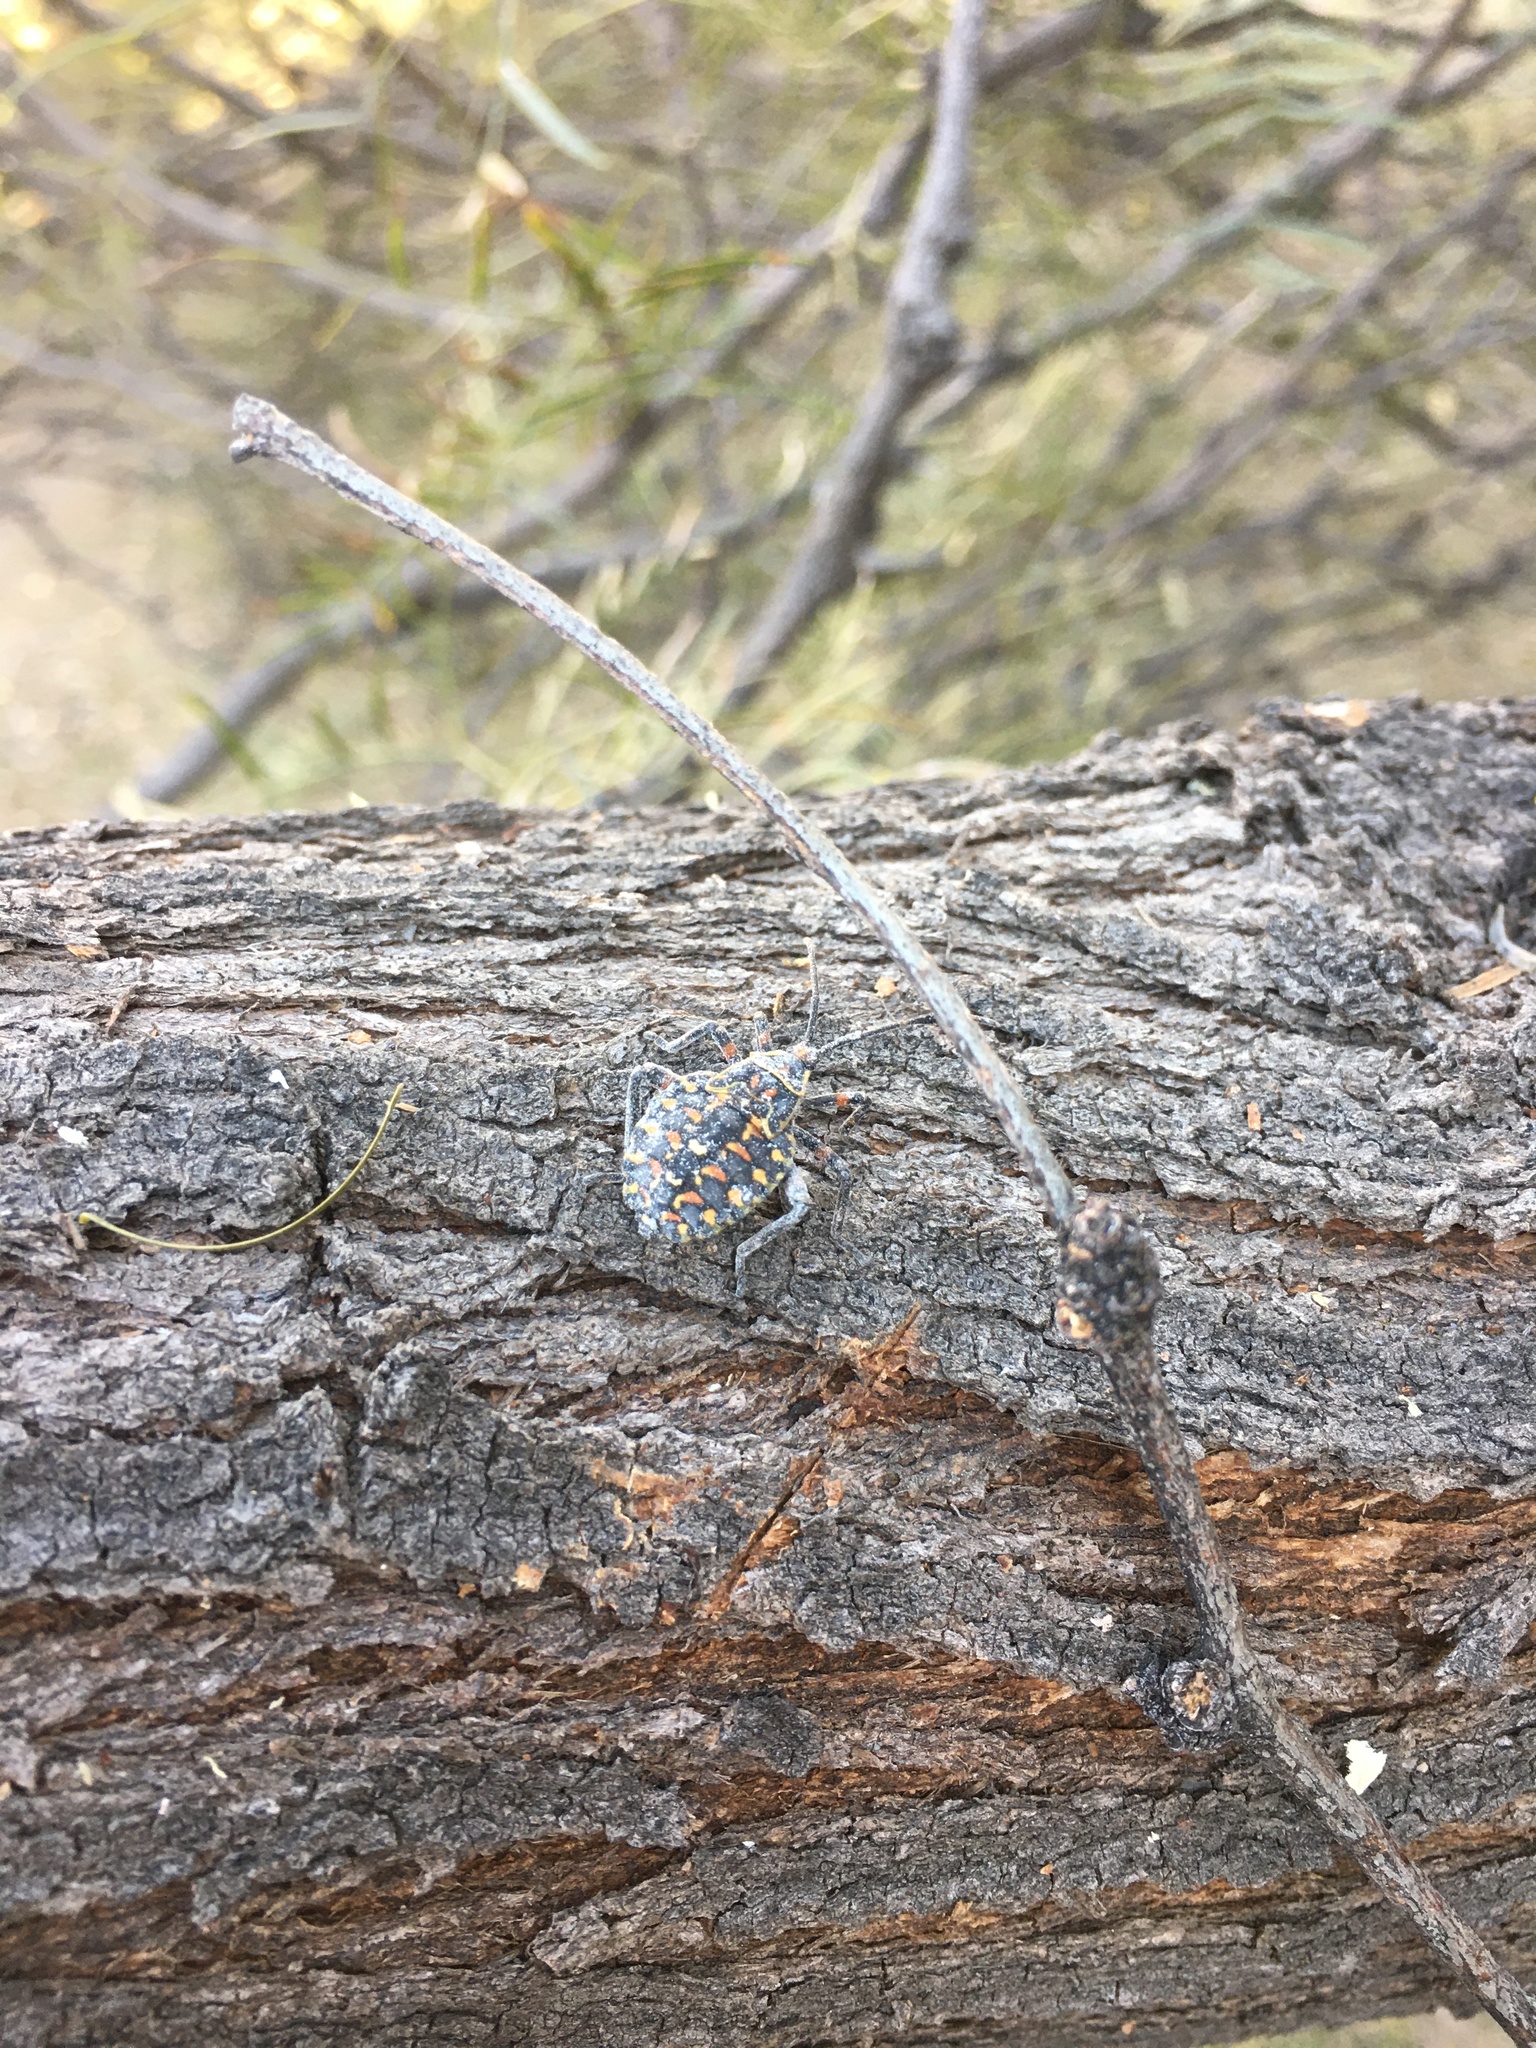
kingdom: Animalia
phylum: Arthropoda
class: Insecta
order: Hemiptera
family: Coreidae
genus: Pachylis
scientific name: Pachylis argentinus
